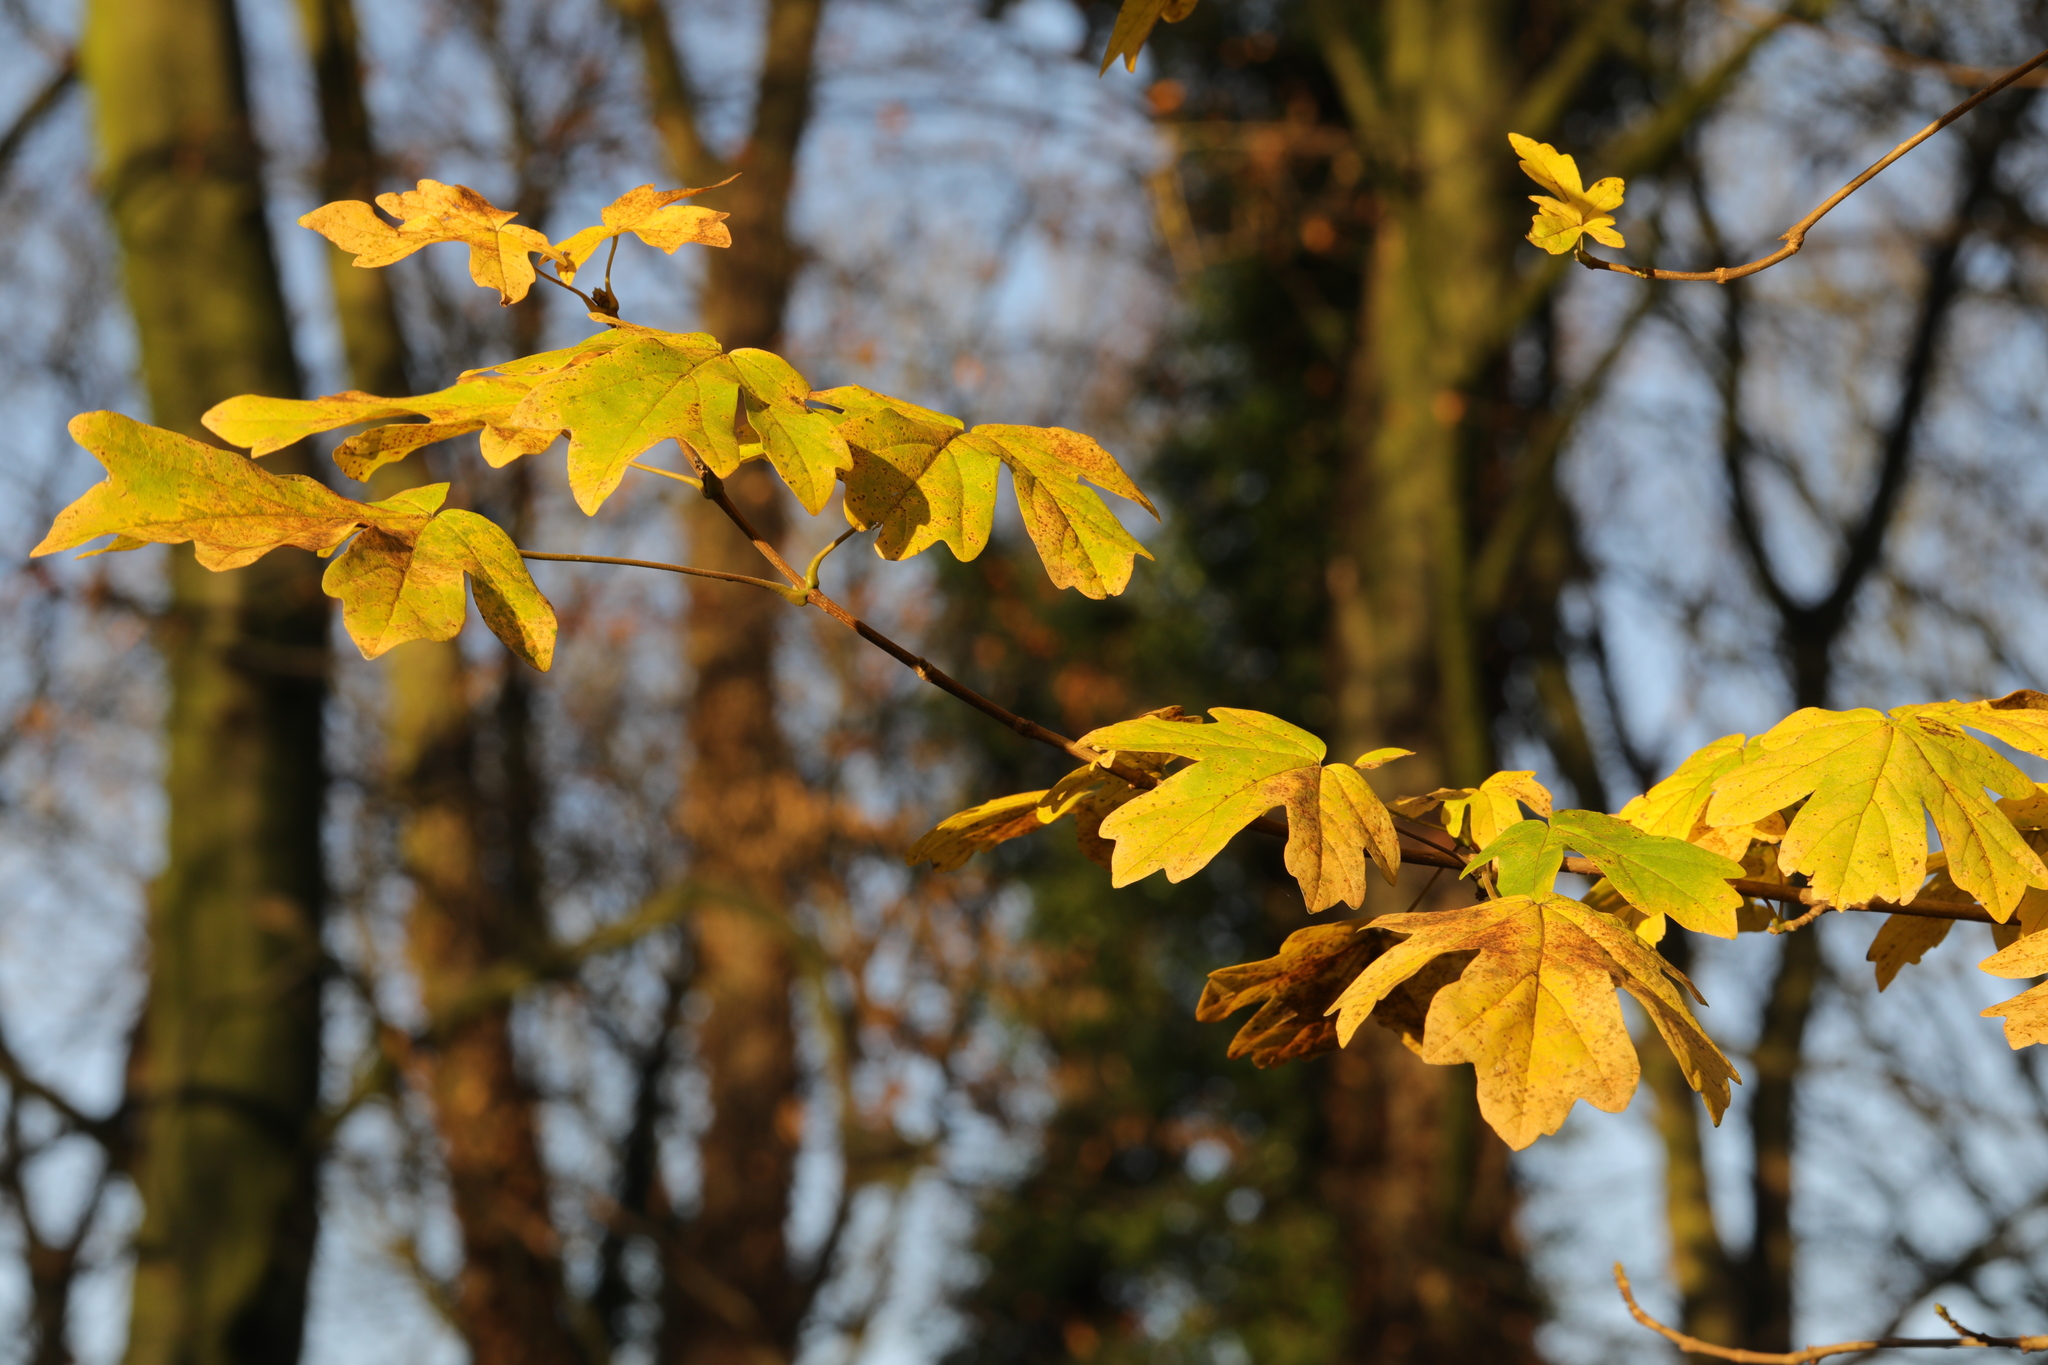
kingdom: Plantae
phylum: Tracheophyta
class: Magnoliopsida
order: Sapindales
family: Sapindaceae
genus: Acer
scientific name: Acer campestre
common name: Field maple
